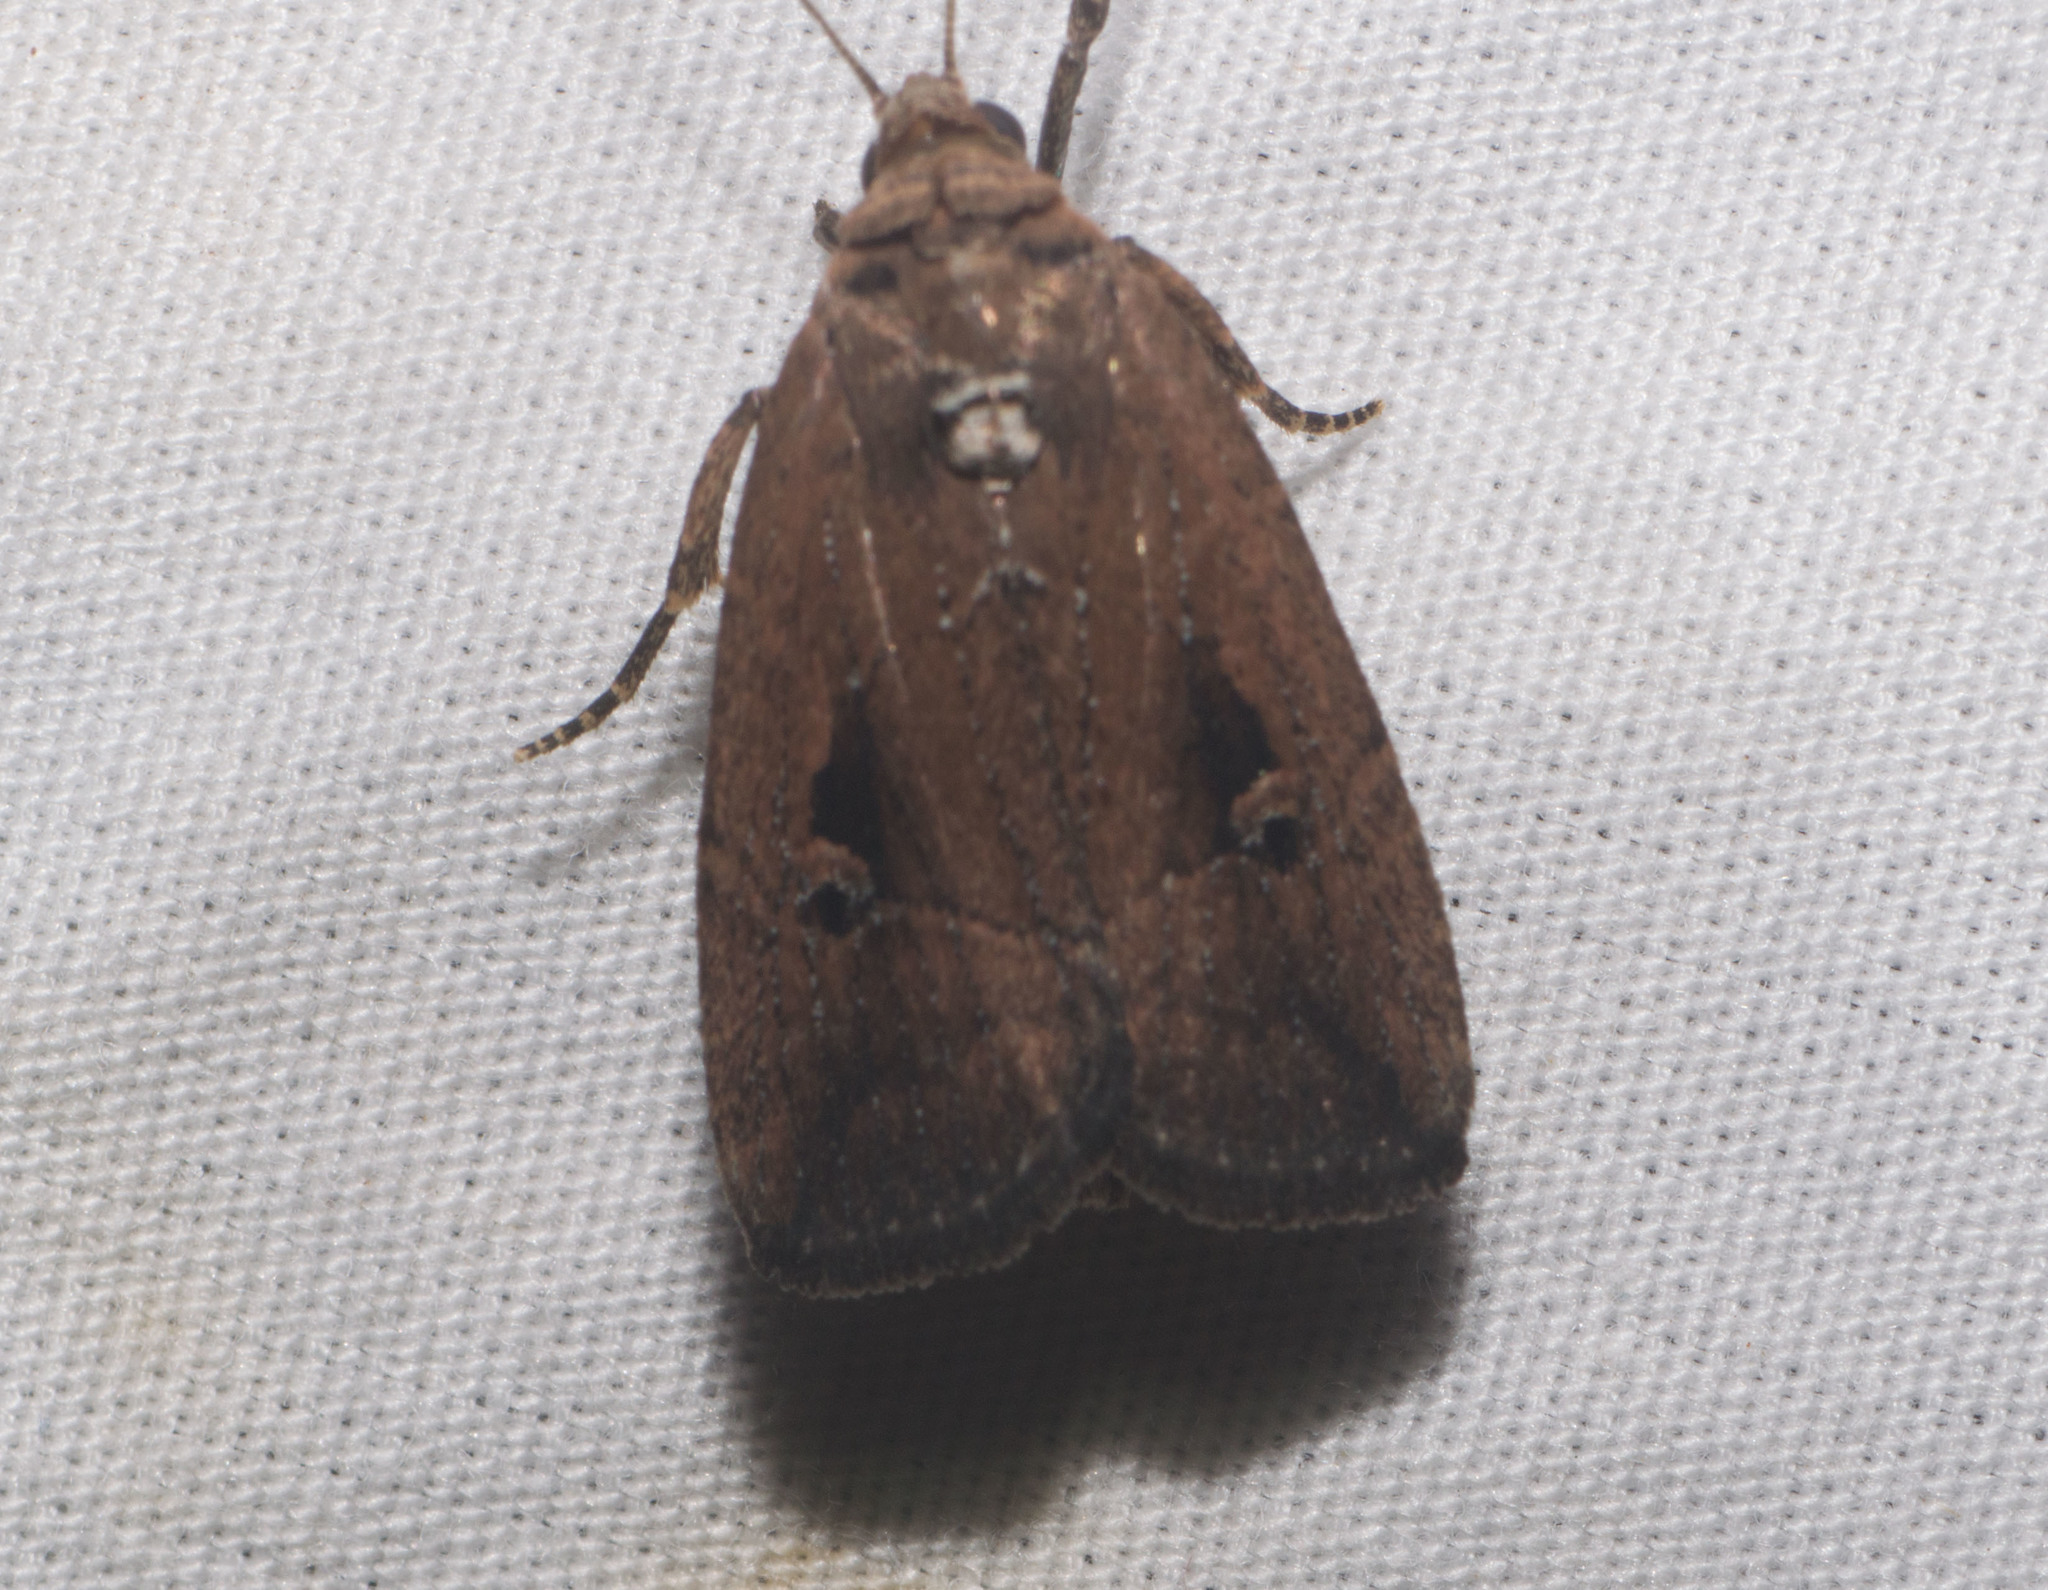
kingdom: Animalia
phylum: Arthropoda
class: Insecta
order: Lepidoptera
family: Noctuidae
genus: Elaphria
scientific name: Elaphria nucicolora
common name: Sugarcane midget moth
